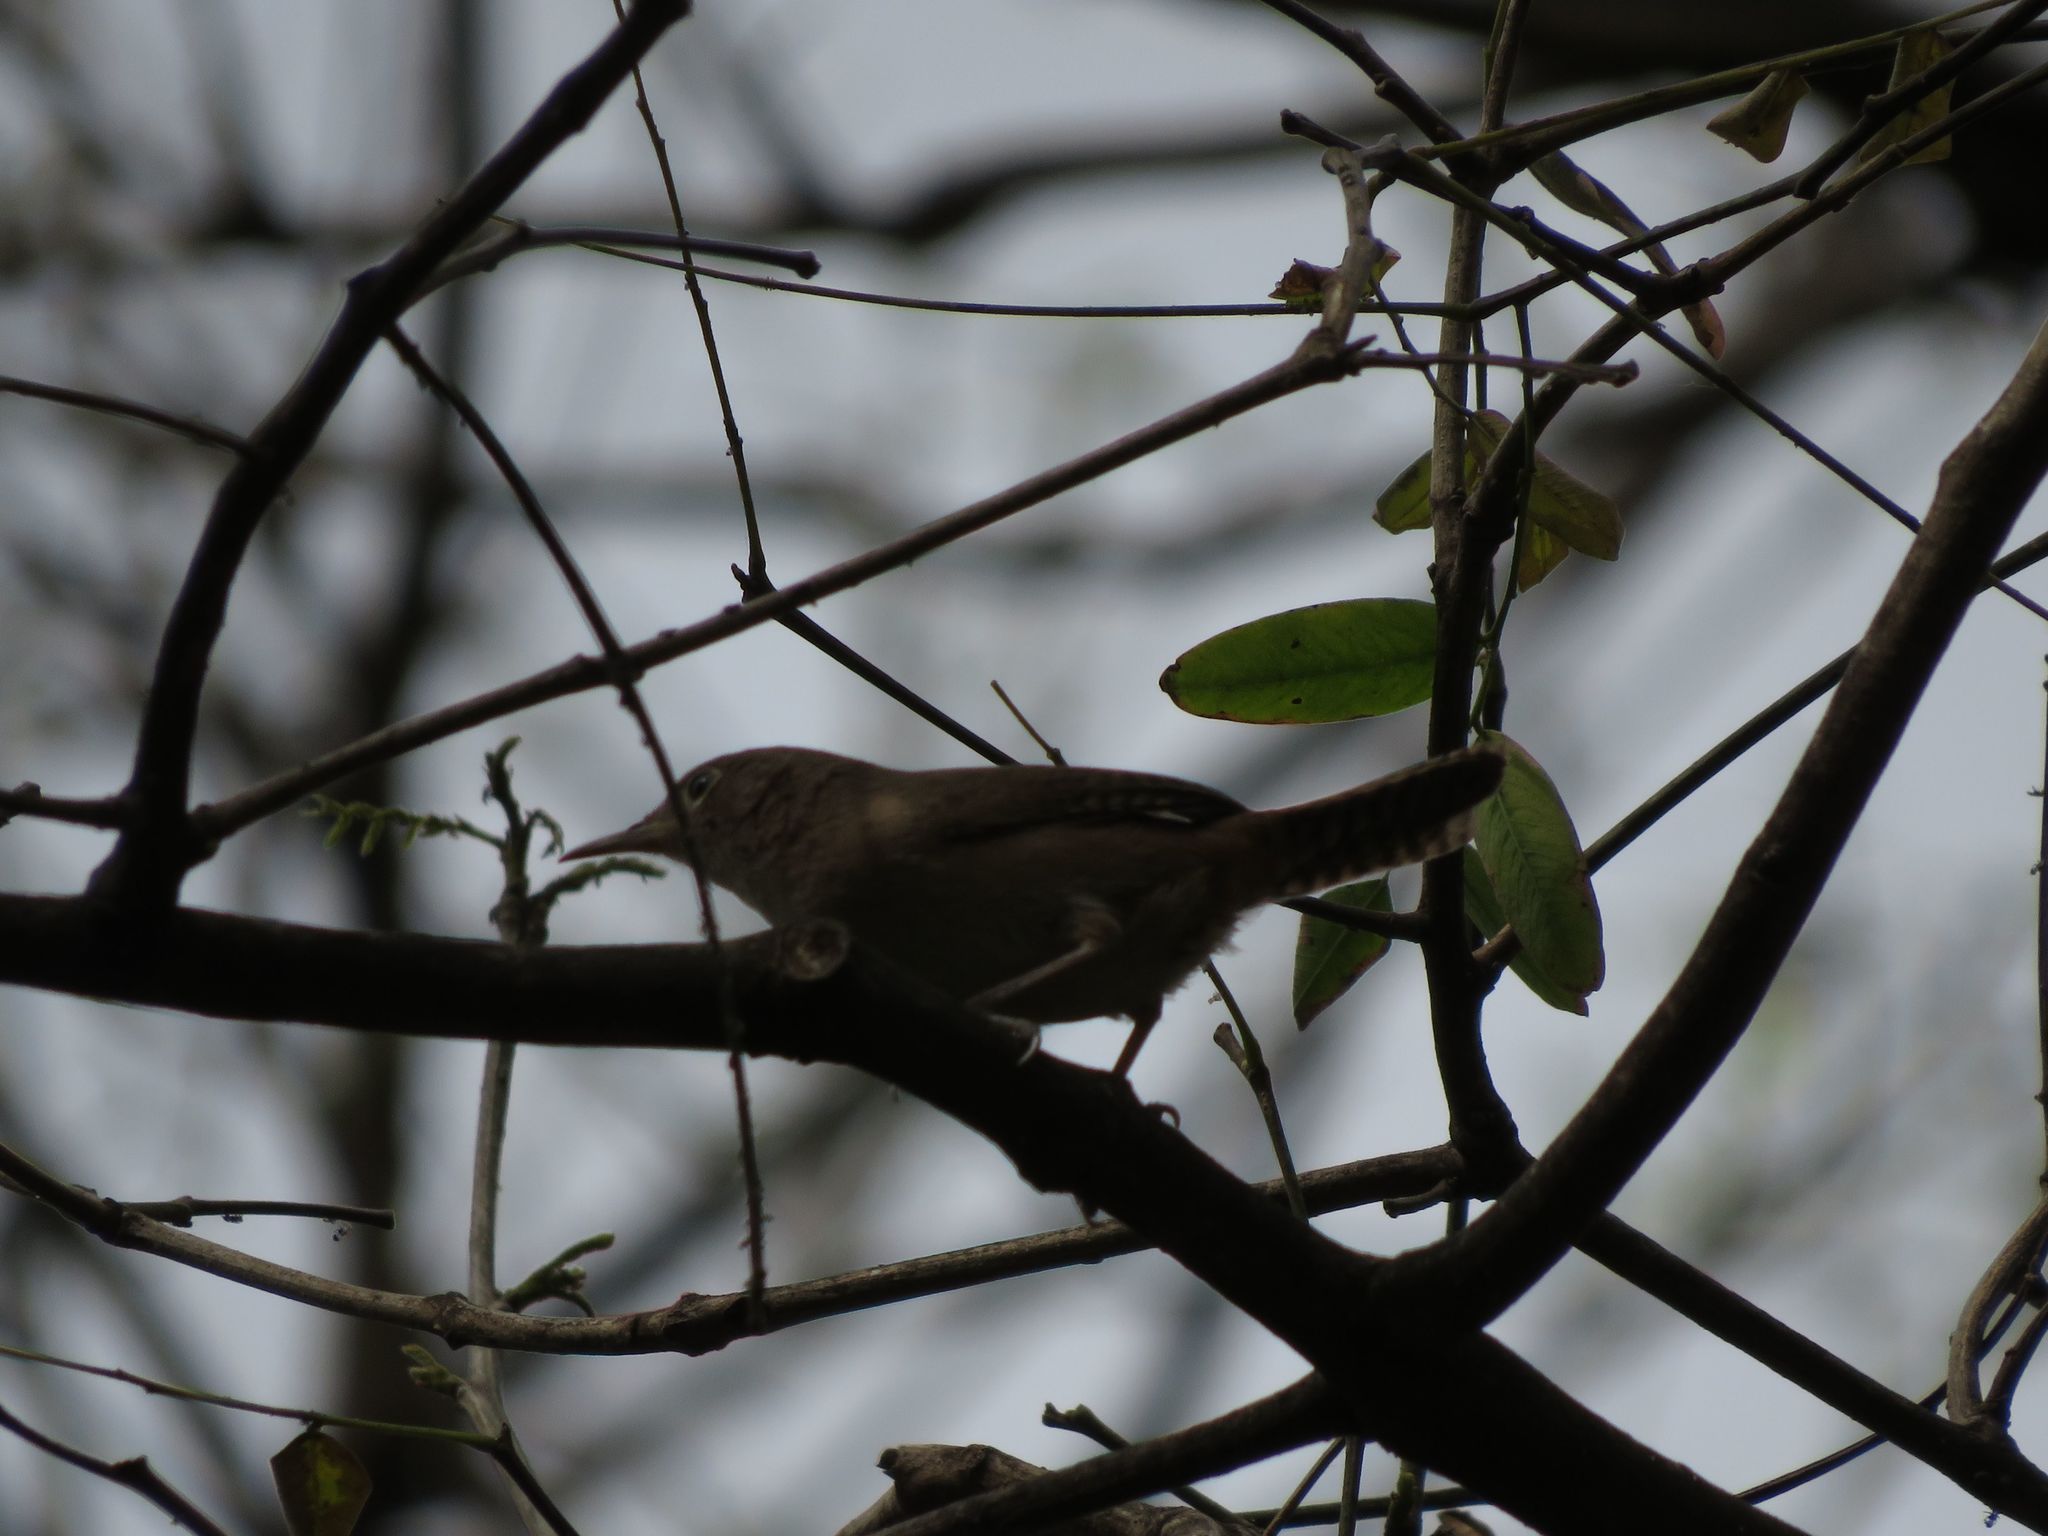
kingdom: Animalia
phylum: Chordata
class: Aves
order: Passeriformes
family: Troglodytidae
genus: Troglodytes
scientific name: Troglodytes aedon
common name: House wren
